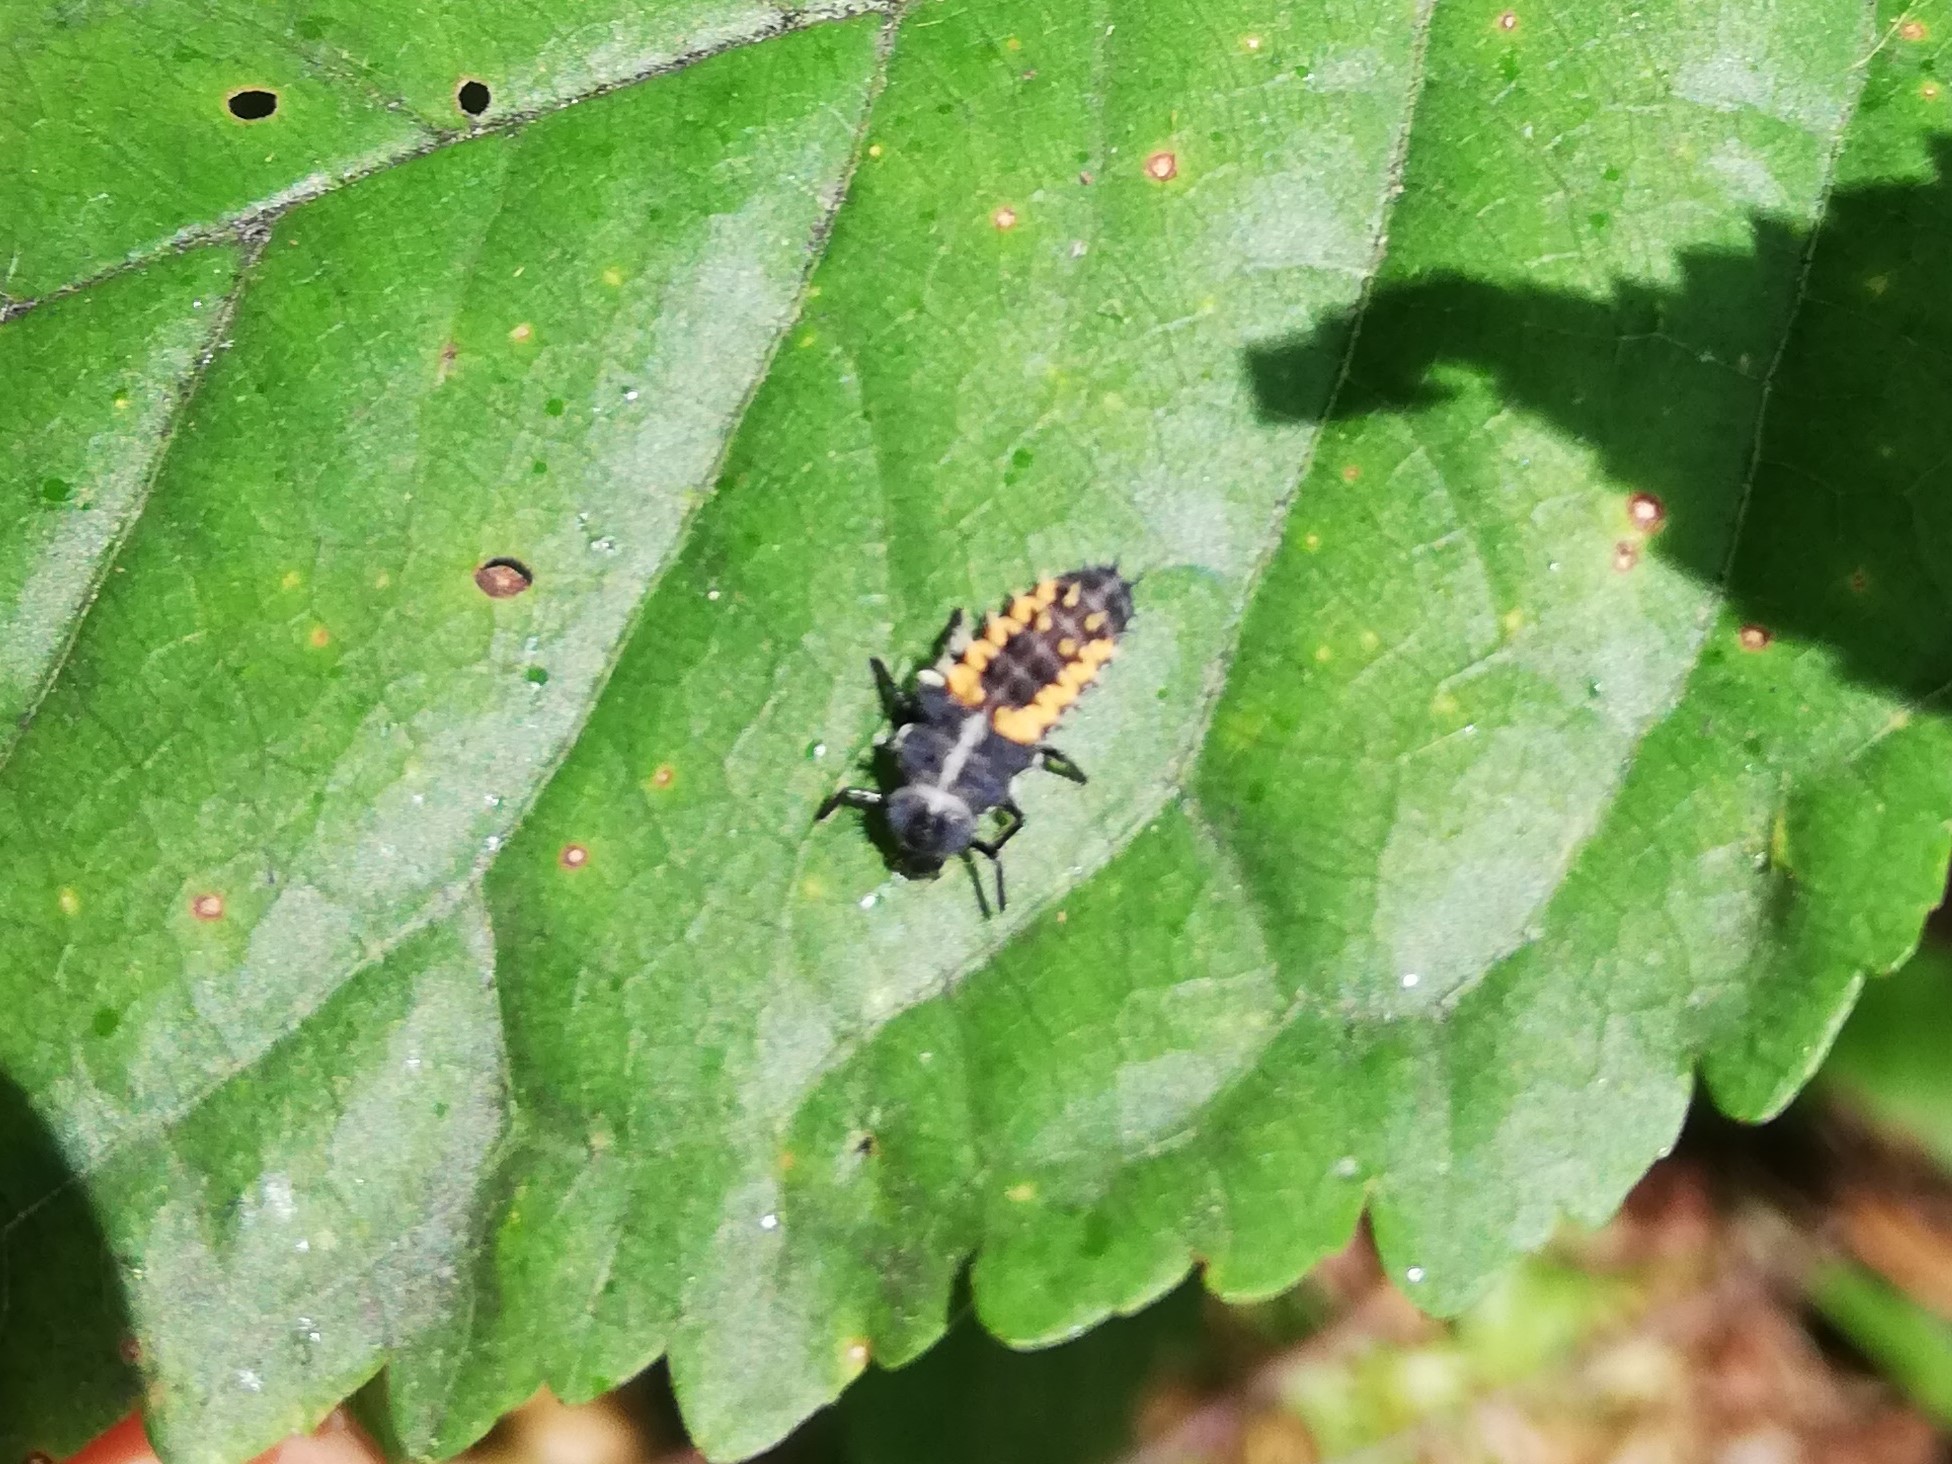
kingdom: Animalia
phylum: Arthropoda
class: Insecta
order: Coleoptera
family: Coccinellidae
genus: Harmonia
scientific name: Harmonia axyridis
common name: Harlequin ladybird
